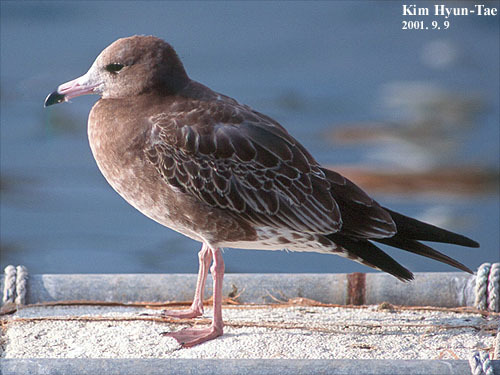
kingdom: Animalia
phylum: Chordata
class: Aves
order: Charadriiformes
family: Laridae
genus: Larus
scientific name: Larus crassirostris
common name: Black-tailed gull
